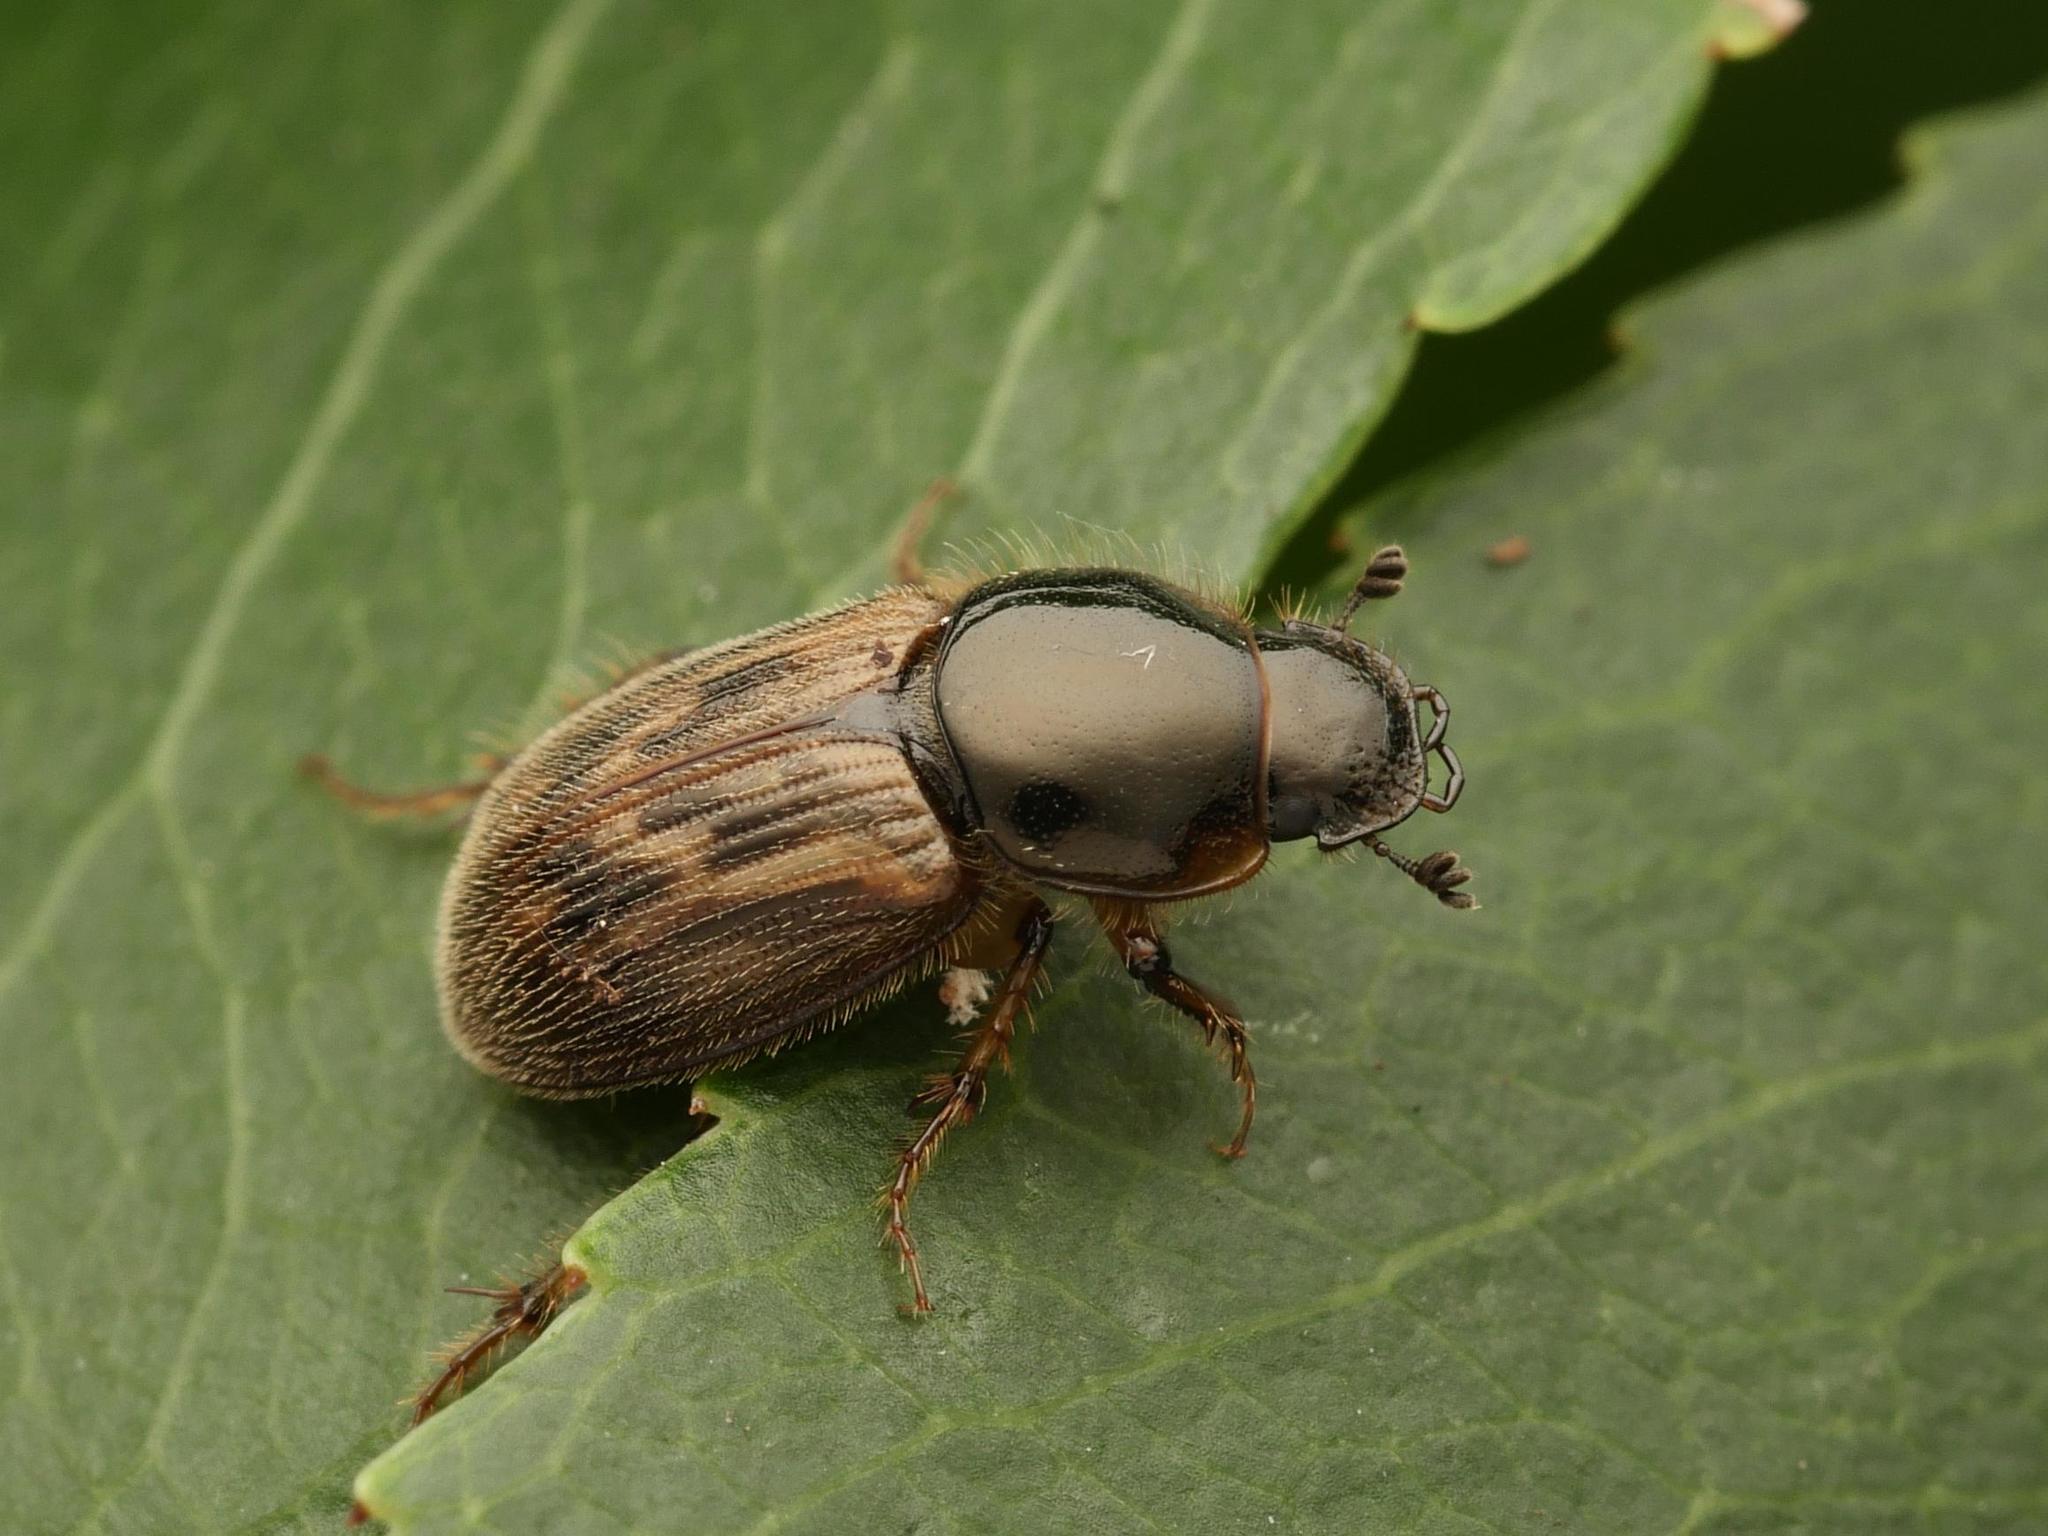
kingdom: Animalia
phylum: Arthropoda
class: Insecta
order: Coleoptera
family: Scarabaeidae
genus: Nimbus
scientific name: Nimbus contaminatus
